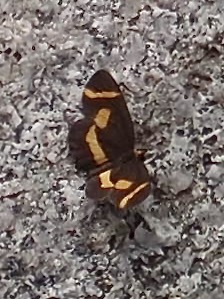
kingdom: Animalia
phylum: Arthropoda
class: Insecta
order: Lepidoptera
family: Nymphalidae
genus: Microtia
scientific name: Microtia elva
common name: Elf
